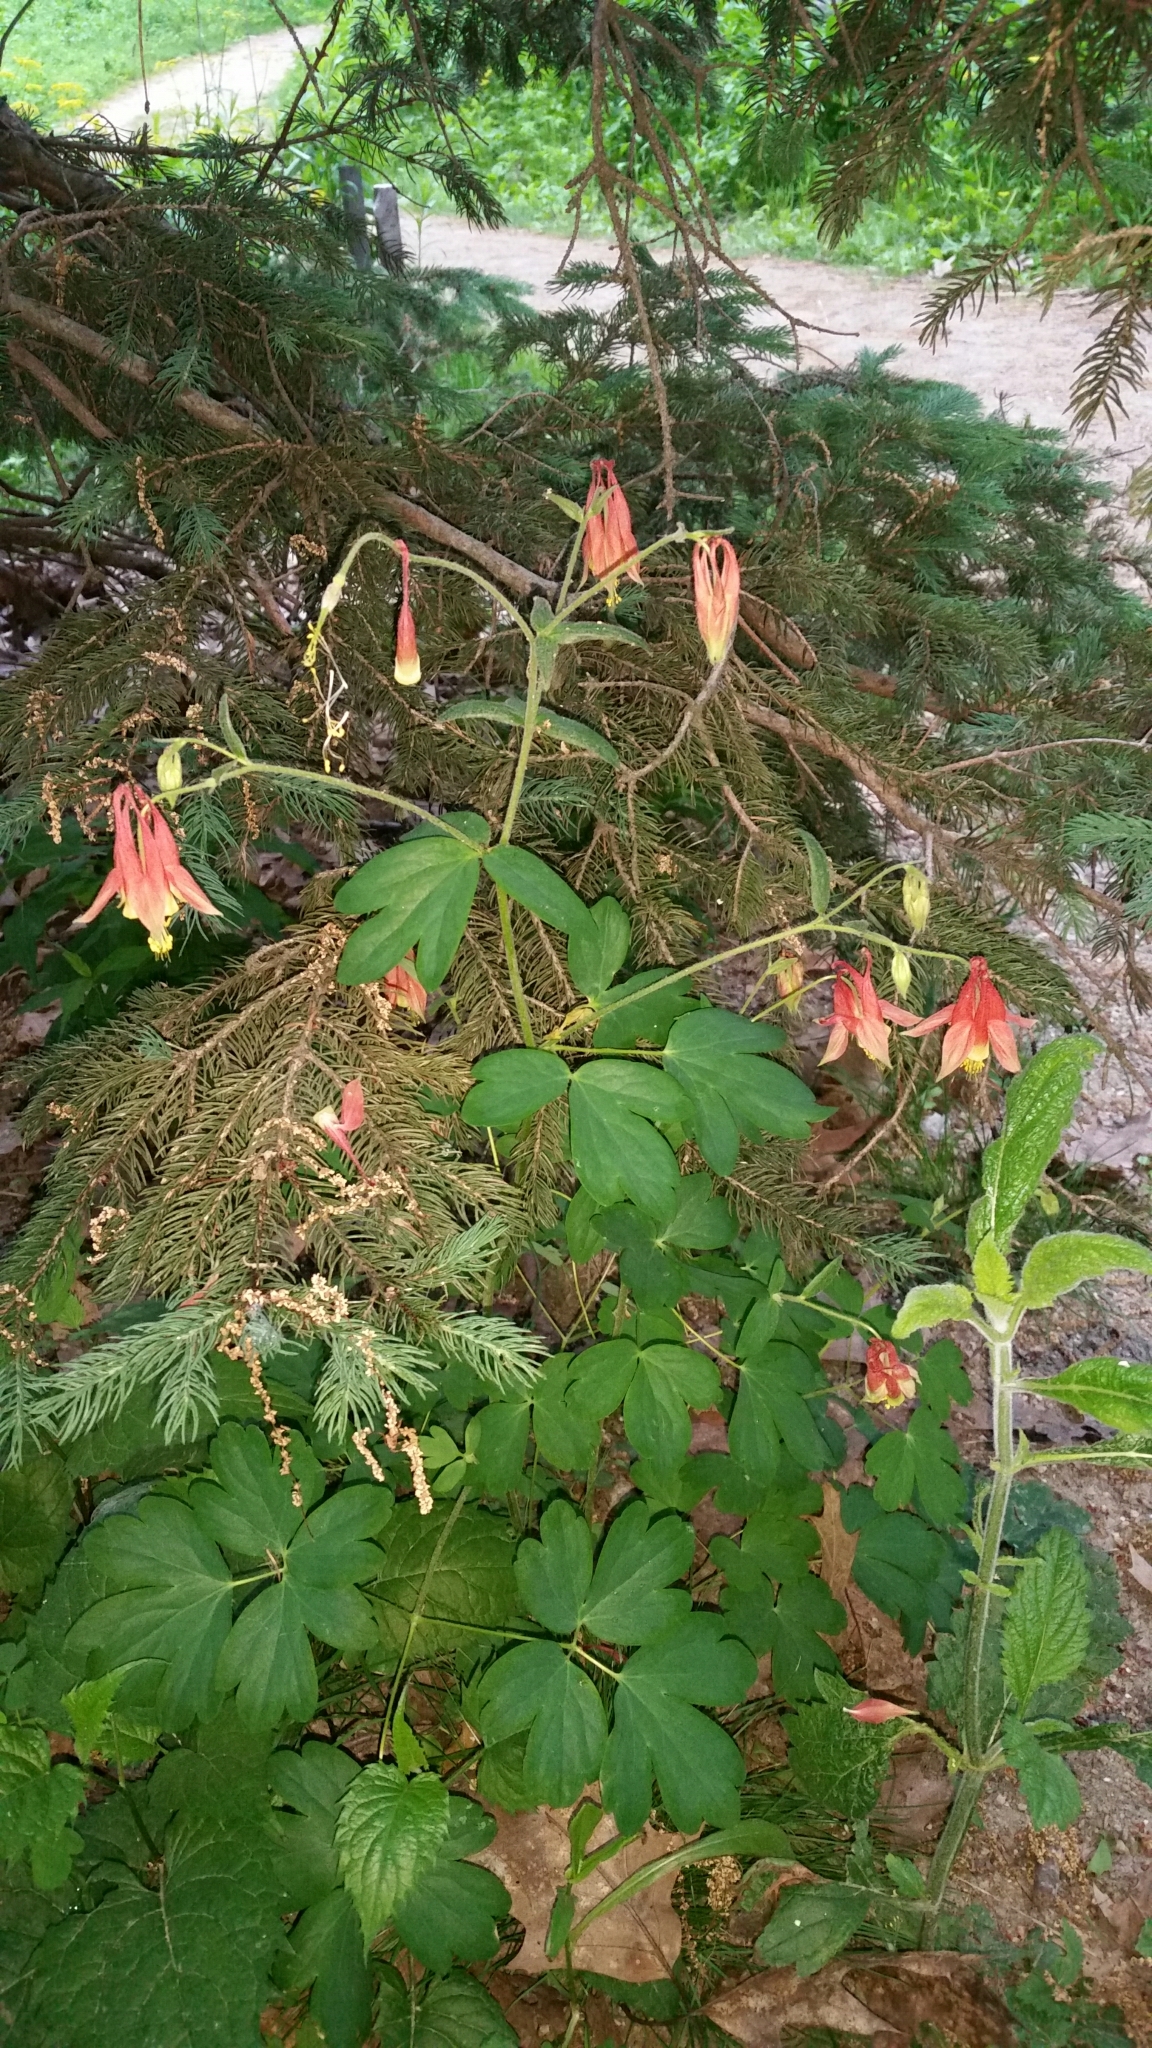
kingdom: Plantae
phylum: Tracheophyta
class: Magnoliopsida
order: Ranunculales
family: Ranunculaceae
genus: Aquilegia
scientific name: Aquilegia canadensis
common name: American columbine
